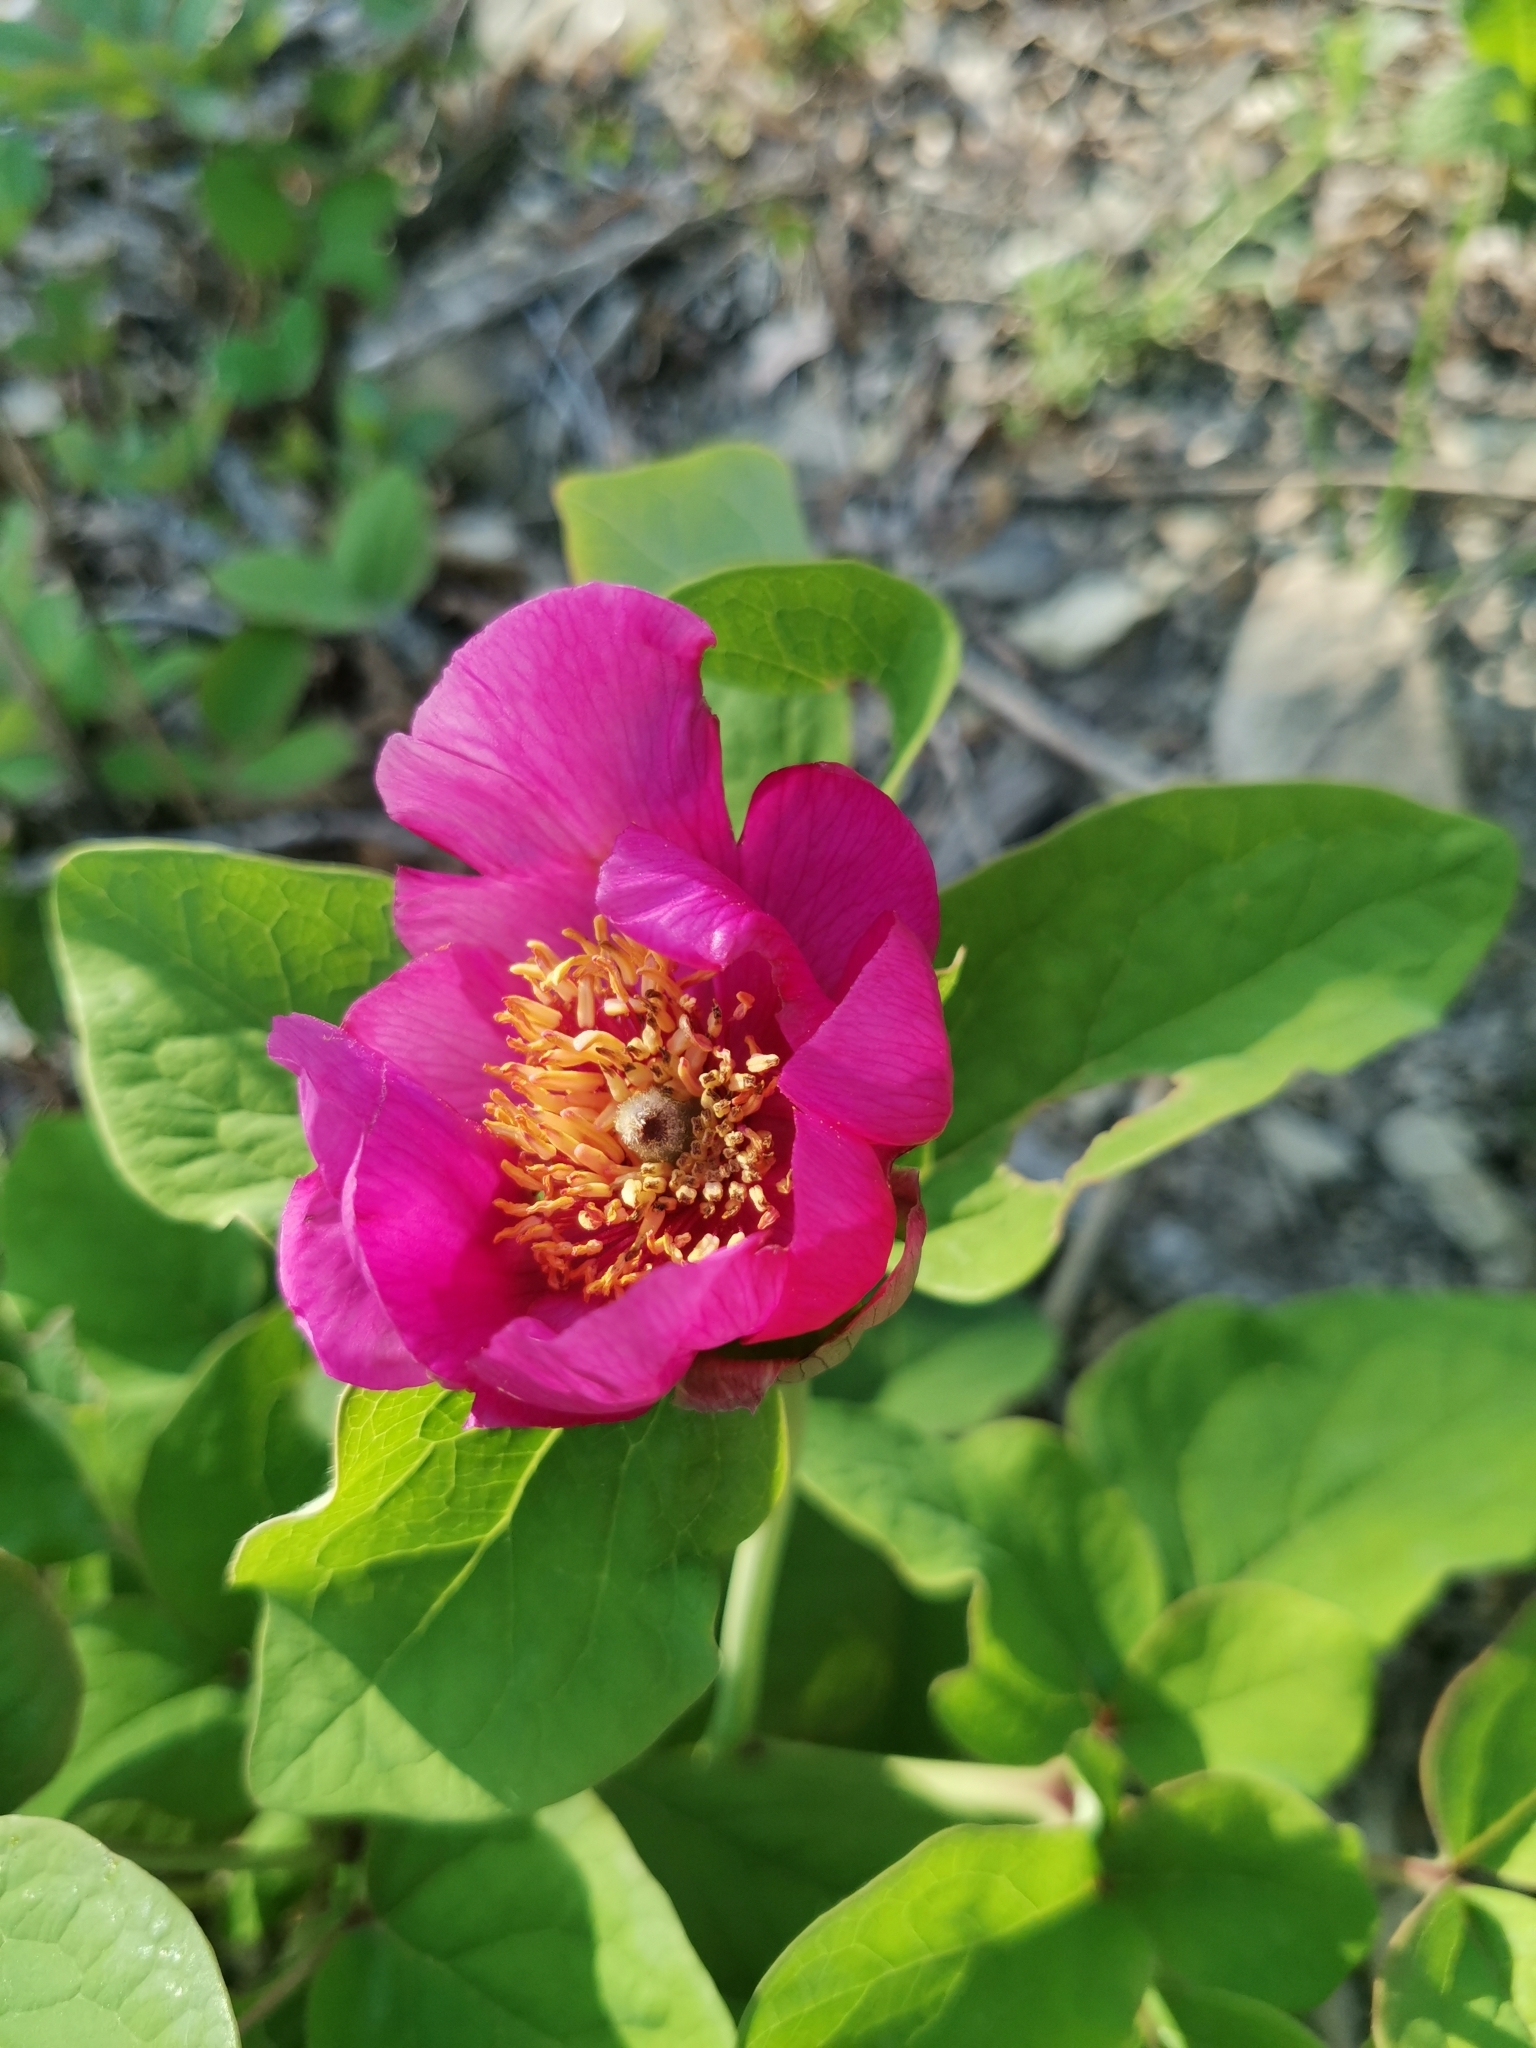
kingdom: Plantae
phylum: Tracheophyta
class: Magnoliopsida
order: Saxifragales
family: Paeoniaceae
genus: Paeonia
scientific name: Paeonia caucasica
